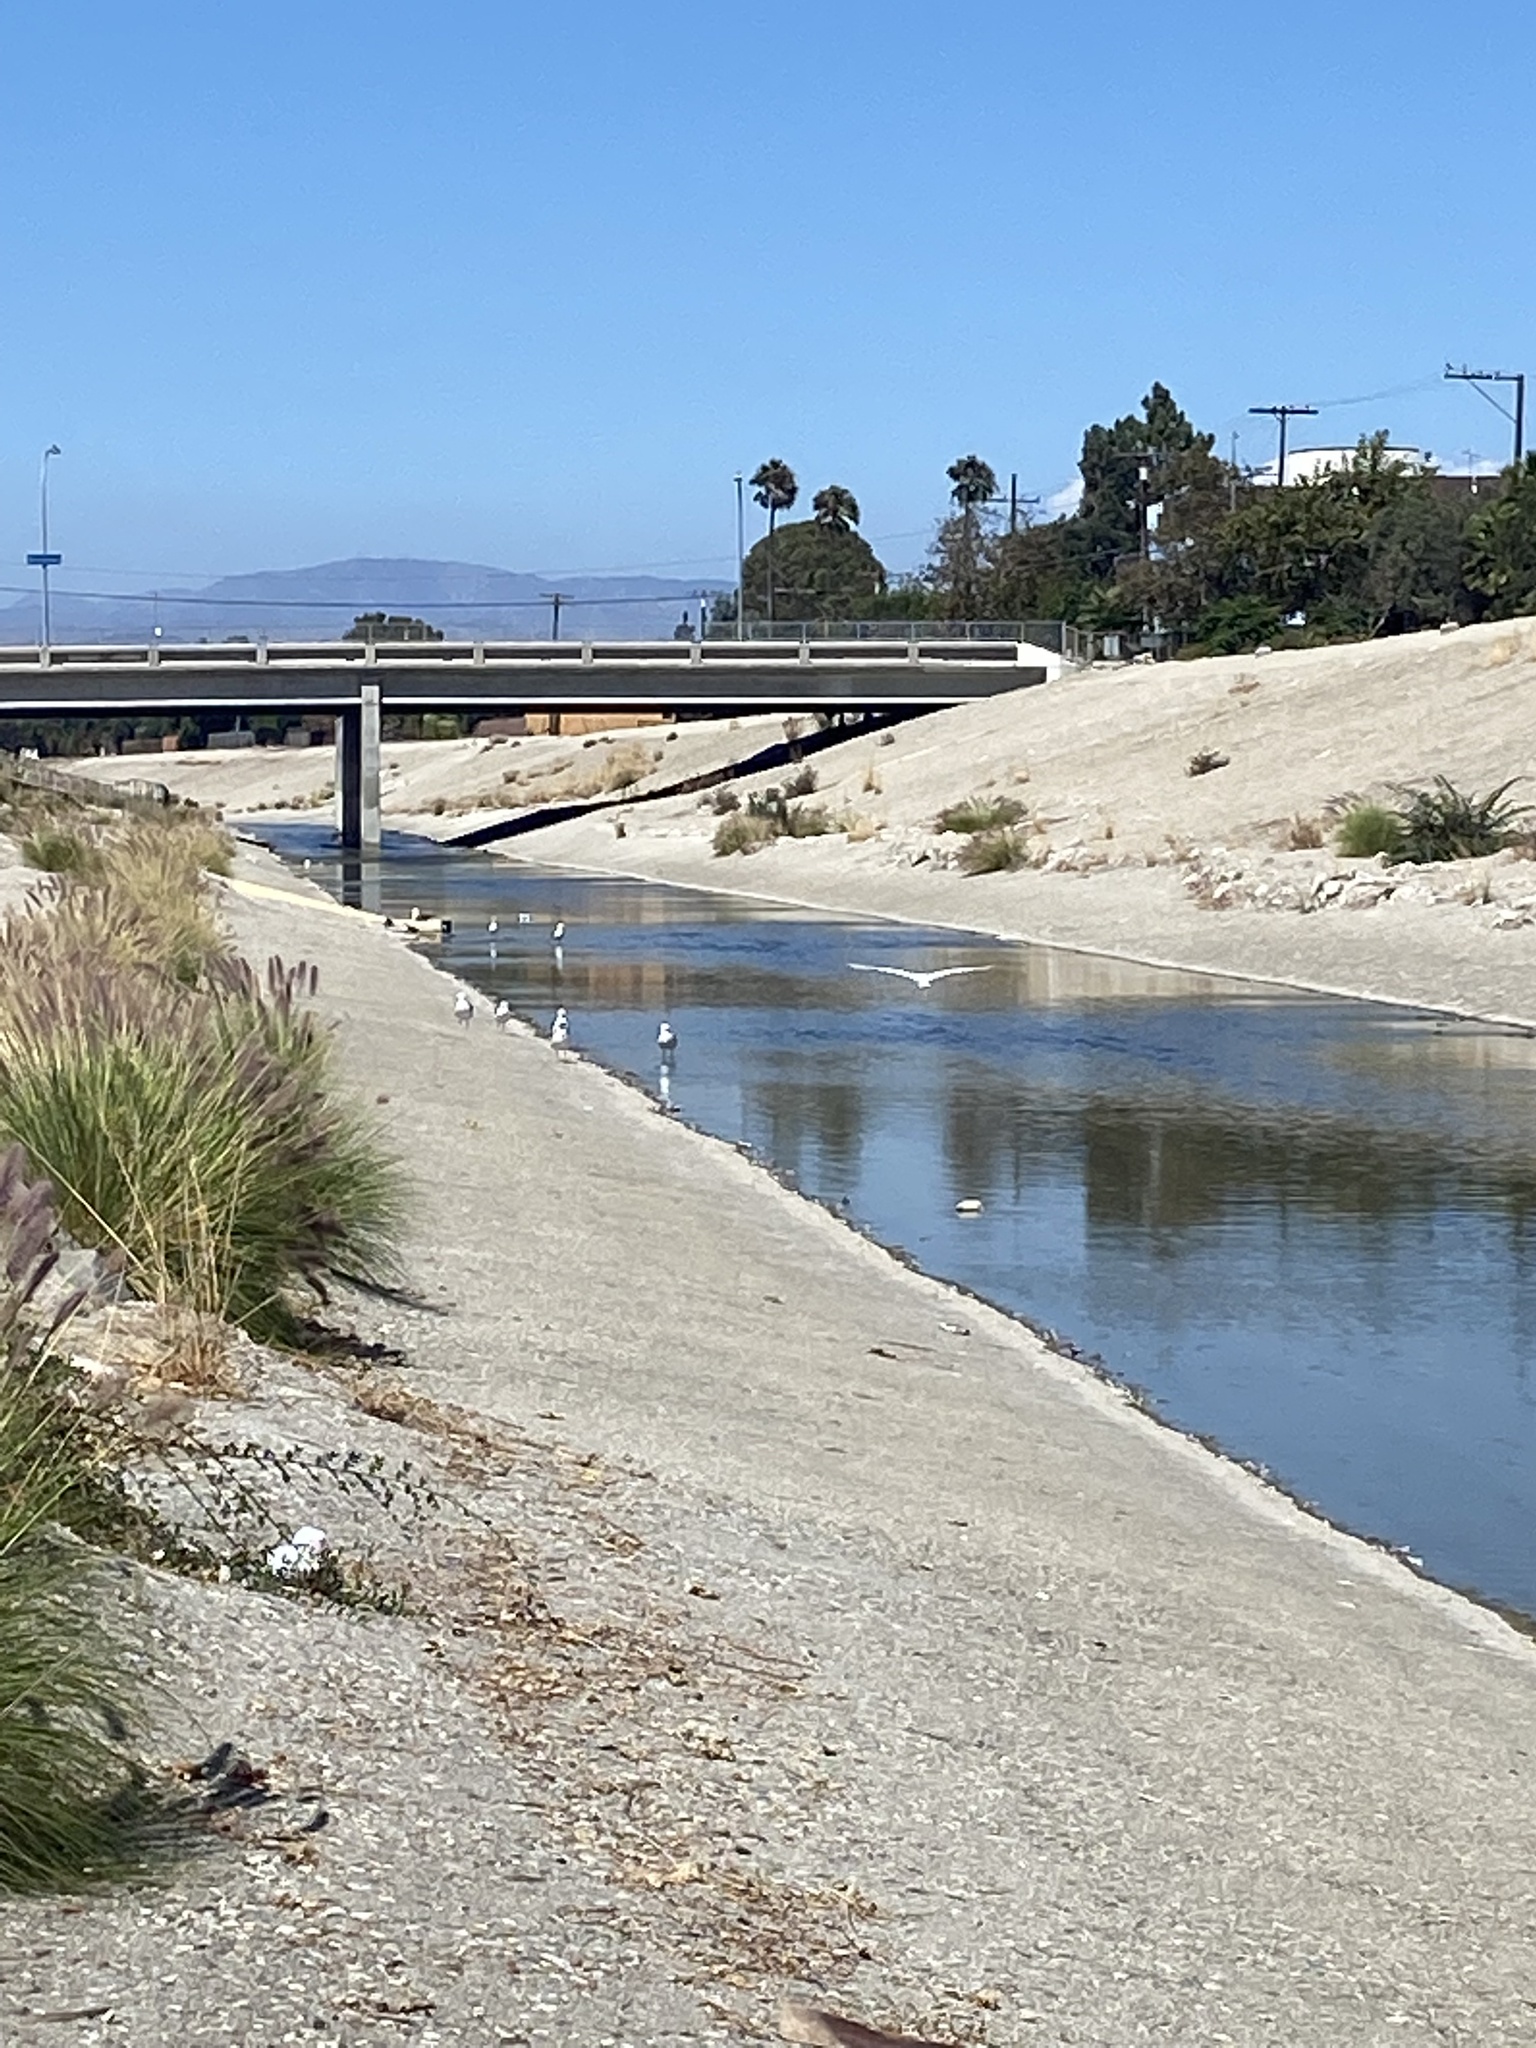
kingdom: Animalia
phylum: Chordata
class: Aves
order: Pelecaniformes
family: Ardeidae
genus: Egretta
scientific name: Egretta thula
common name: Snowy egret
